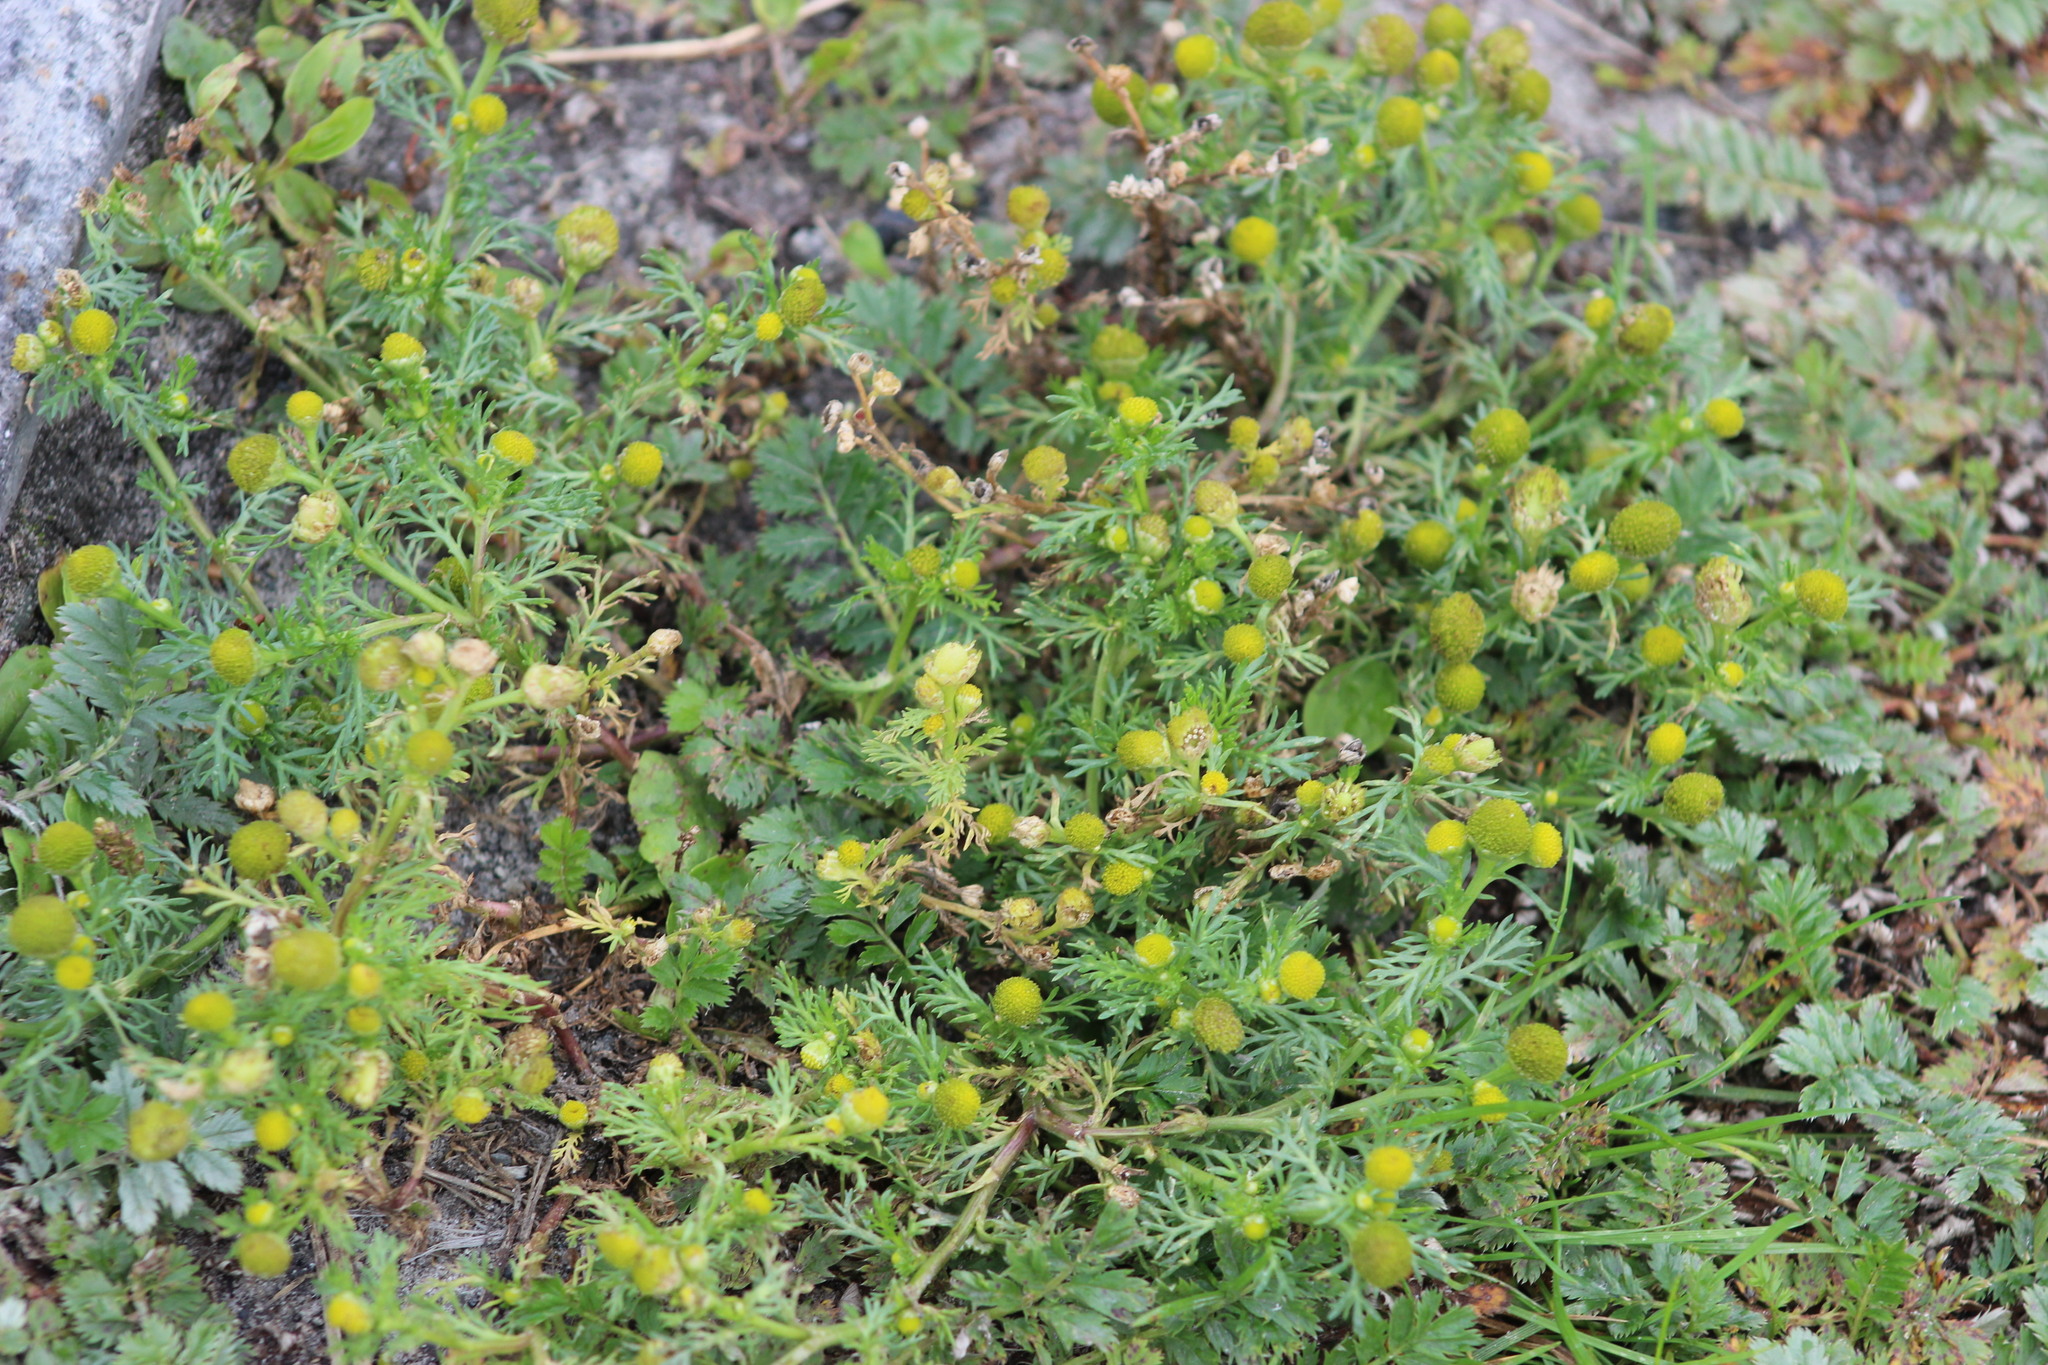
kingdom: Plantae
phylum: Tracheophyta
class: Magnoliopsida
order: Asterales
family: Asteraceae
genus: Matricaria
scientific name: Matricaria discoidea
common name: Disc mayweed
